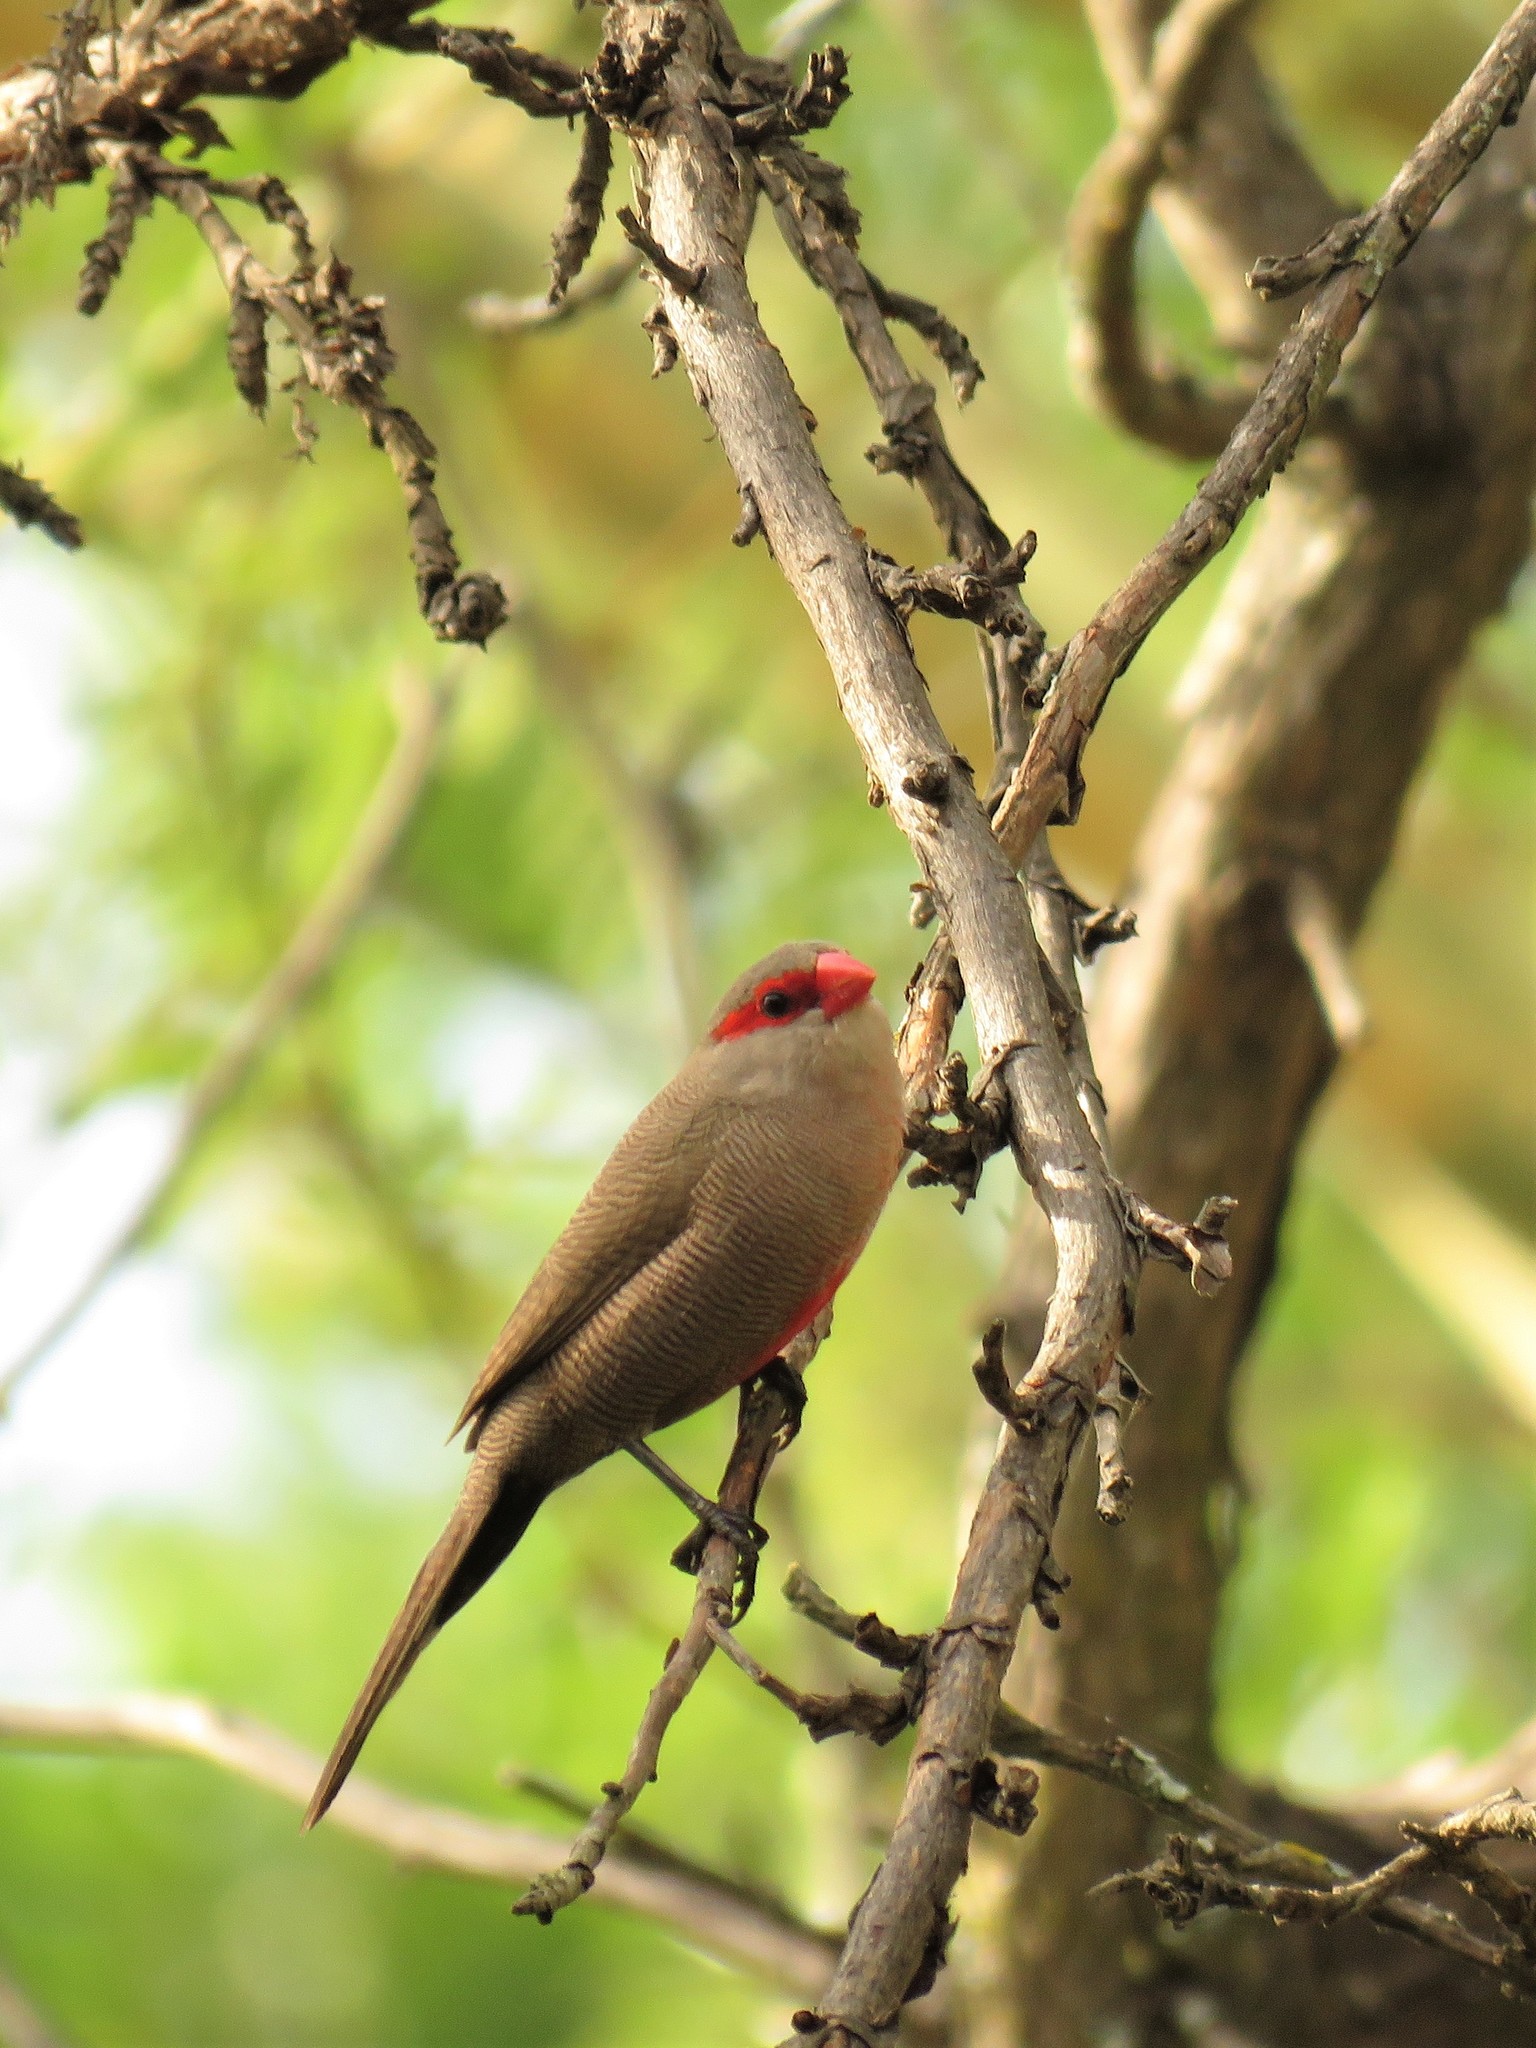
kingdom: Animalia
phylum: Chordata
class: Aves
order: Passeriformes
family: Estrildidae
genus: Estrilda
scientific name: Estrilda astrild
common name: Common waxbill
